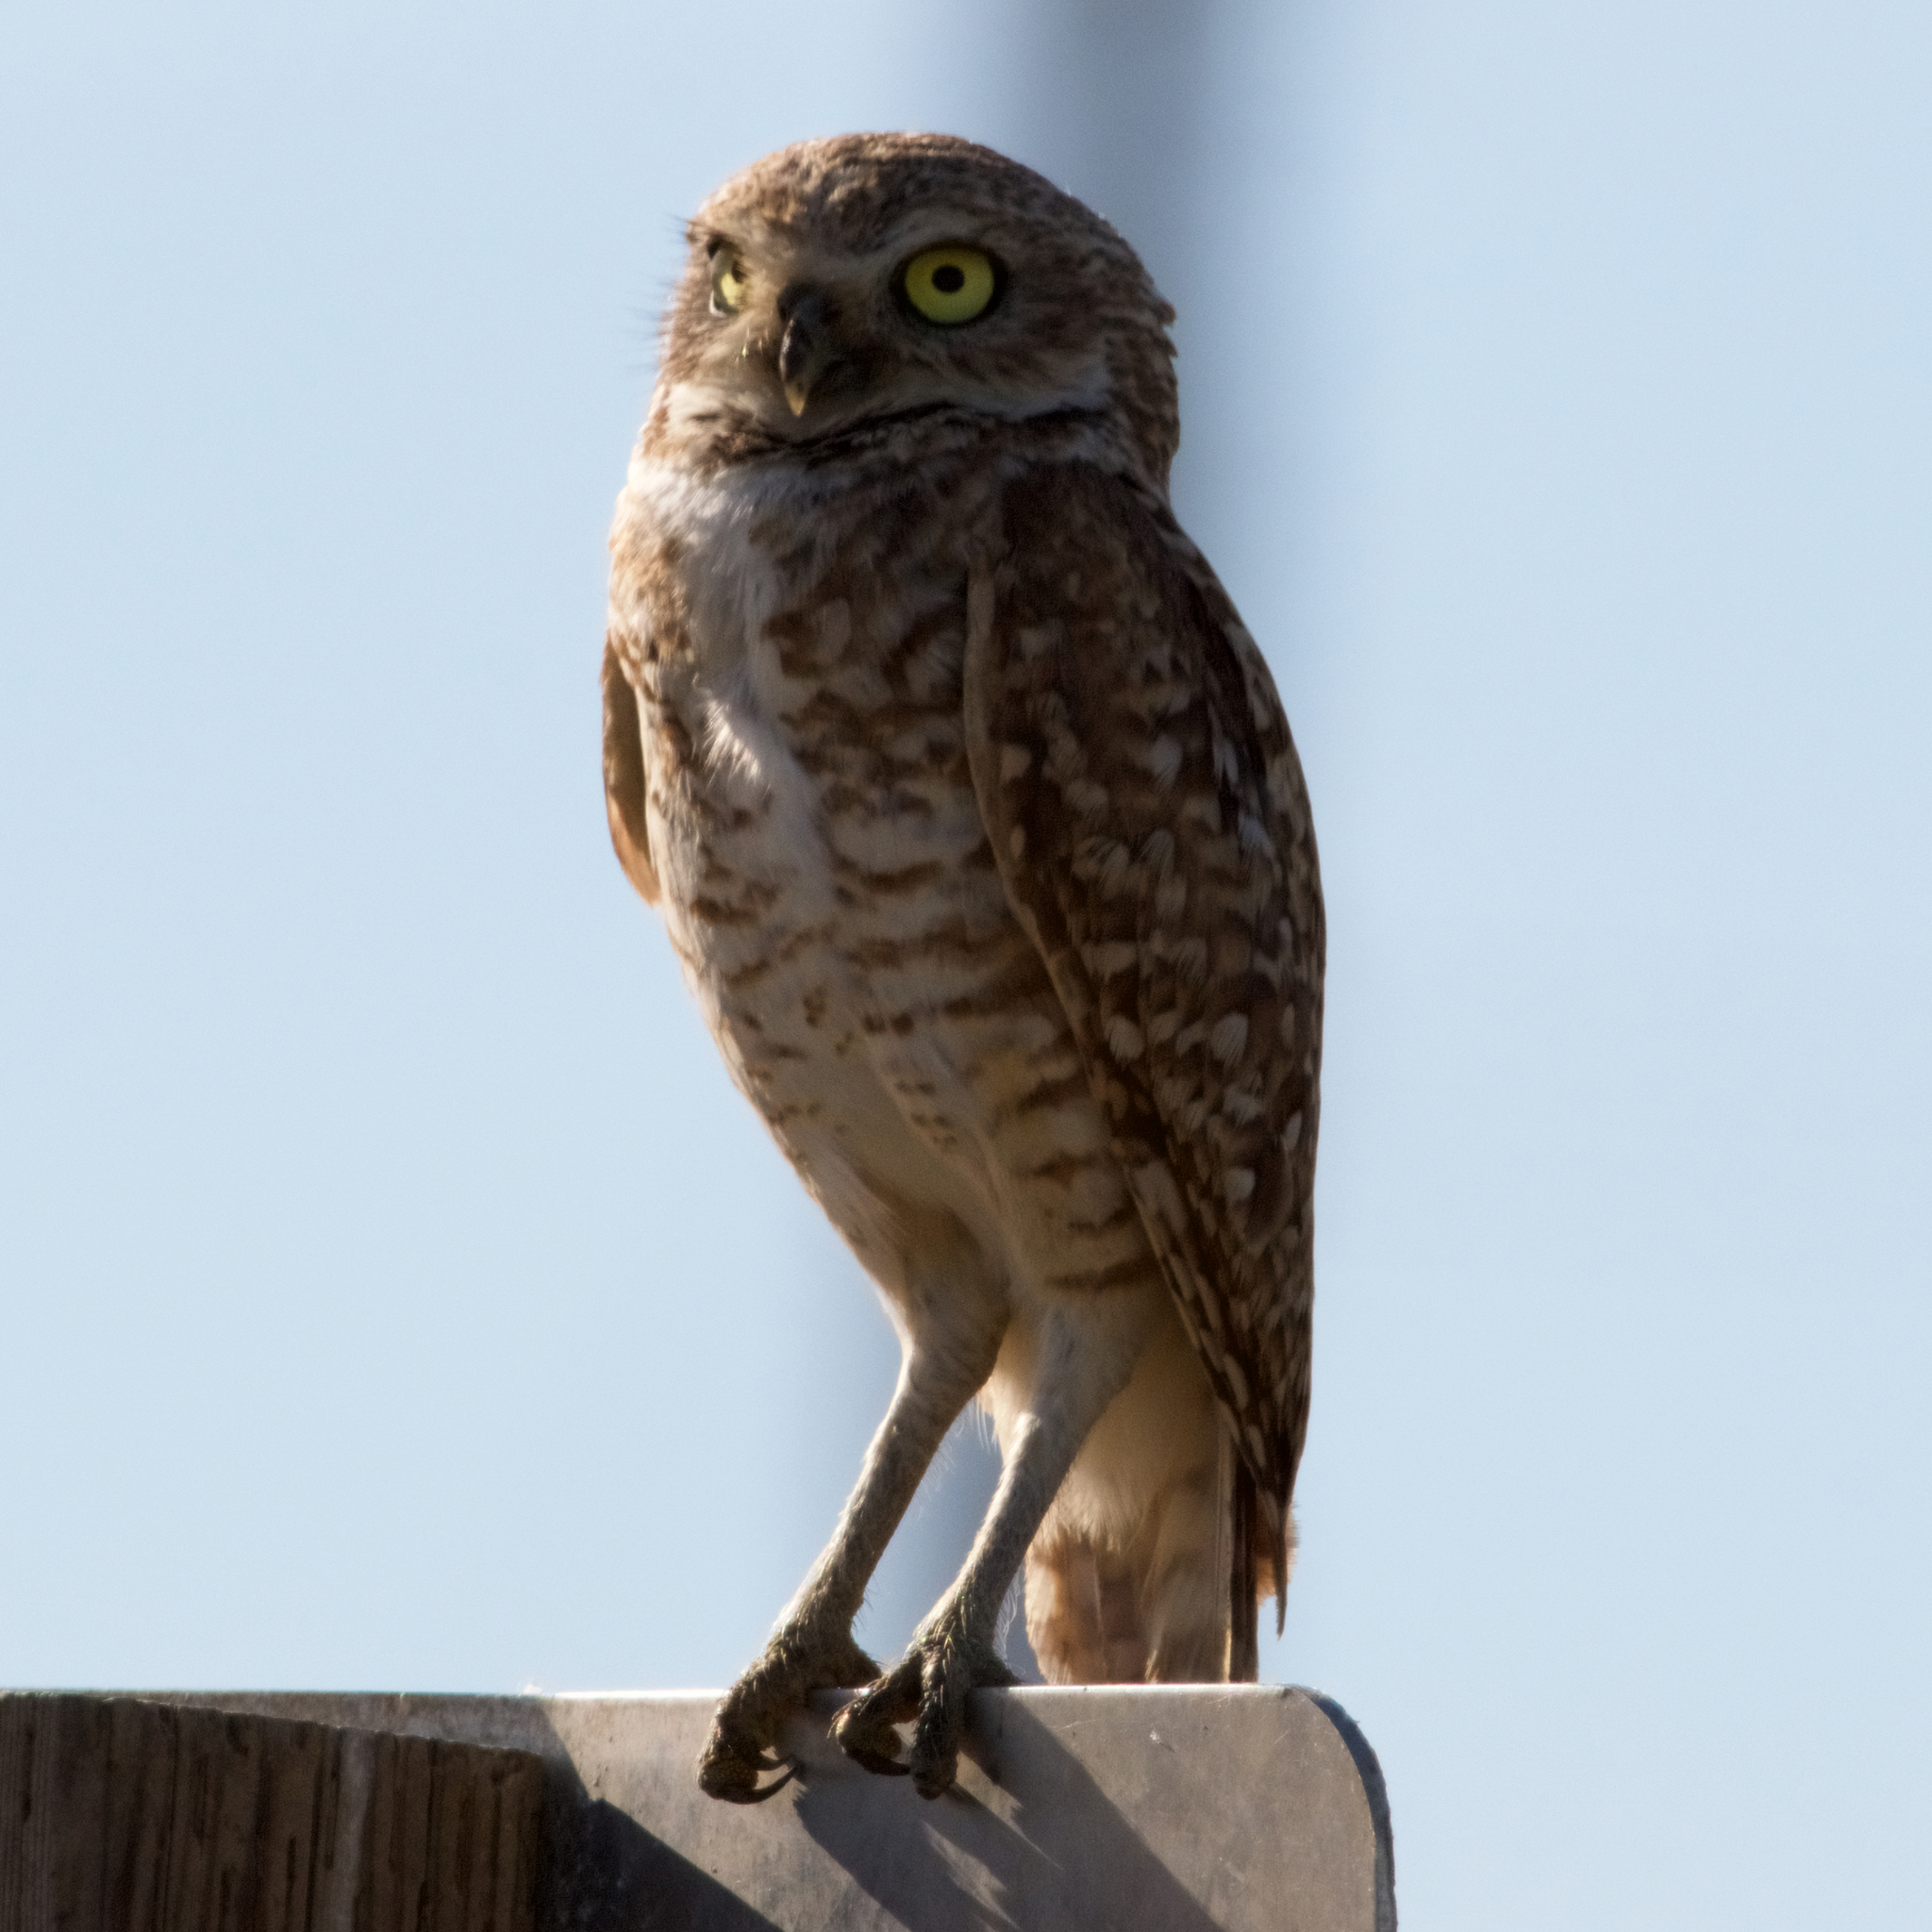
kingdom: Animalia
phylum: Chordata
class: Aves
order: Strigiformes
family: Strigidae
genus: Athene
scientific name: Athene cunicularia
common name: Burrowing owl
